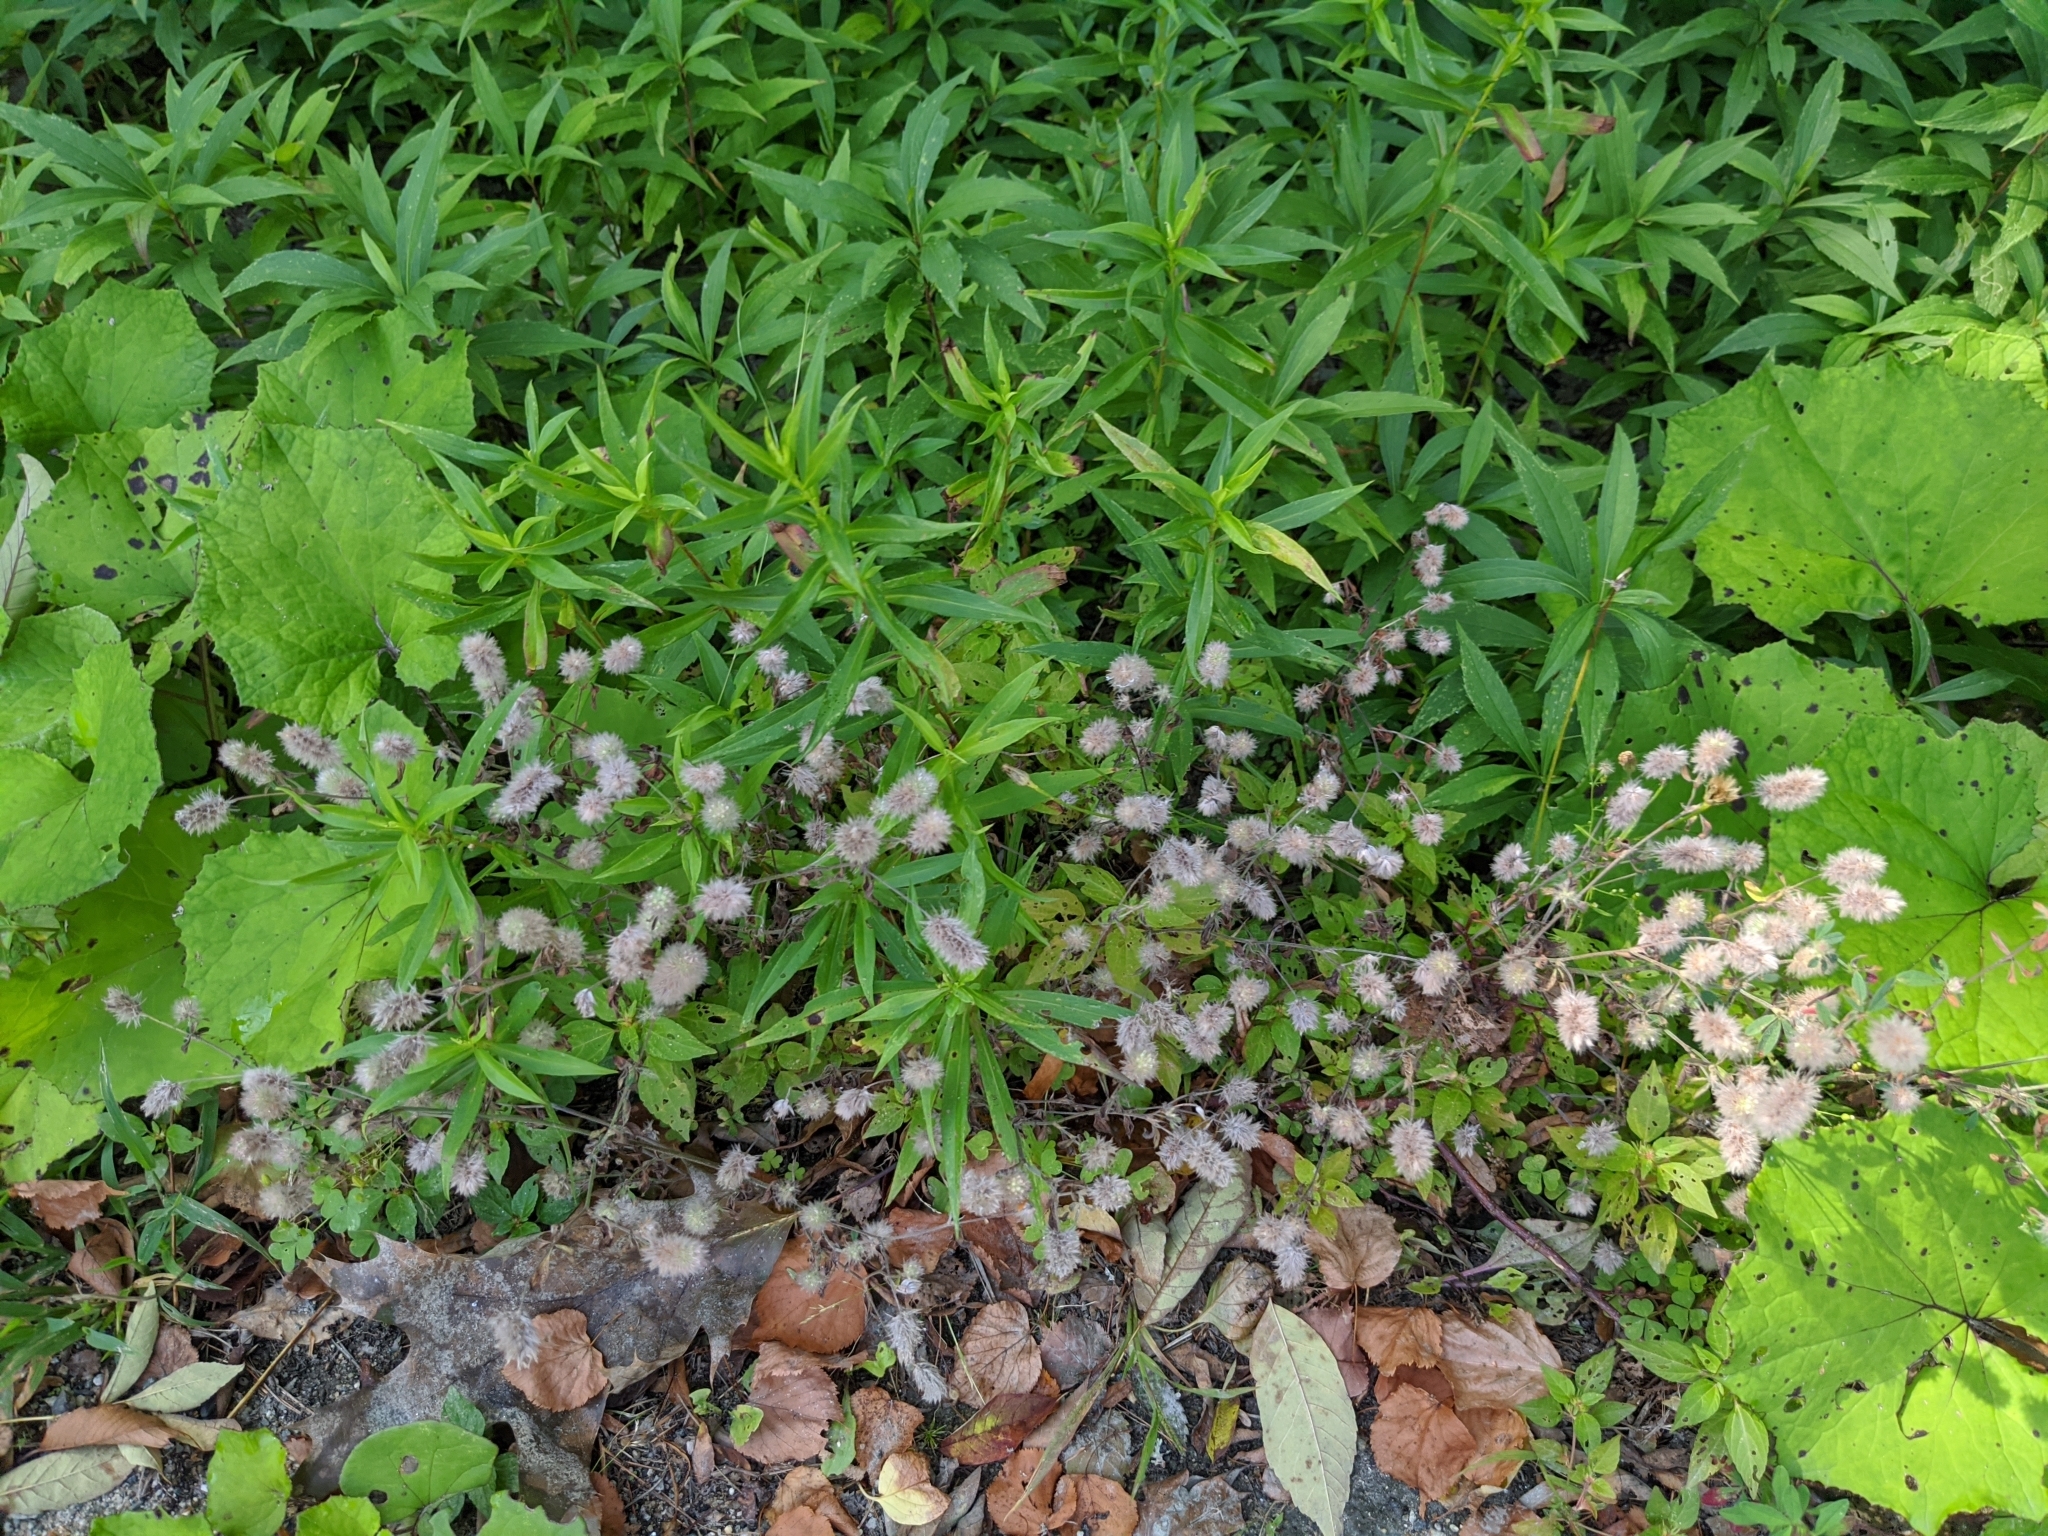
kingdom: Plantae
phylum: Tracheophyta
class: Magnoliopsida
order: Fabales
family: Fabaceae
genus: Trifolium
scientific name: Trifolium arvense
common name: Hare's-foot clover
